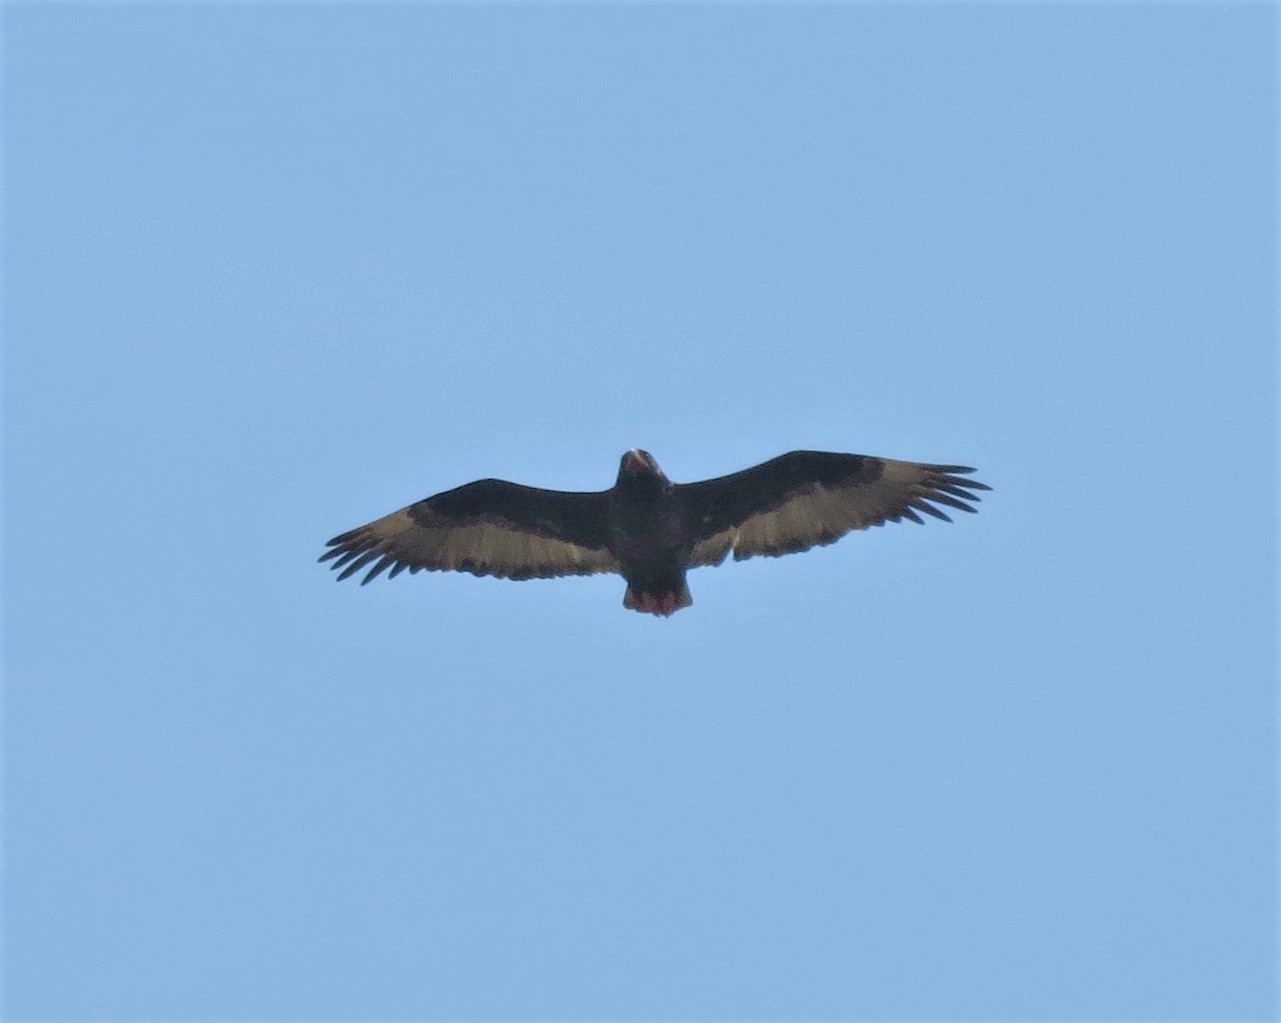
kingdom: Animalia
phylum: Chordata
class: Aves
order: Accipitriformes
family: Accipitridae
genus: Terathopius
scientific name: Terathopius ecaudatus
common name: Bateleur
